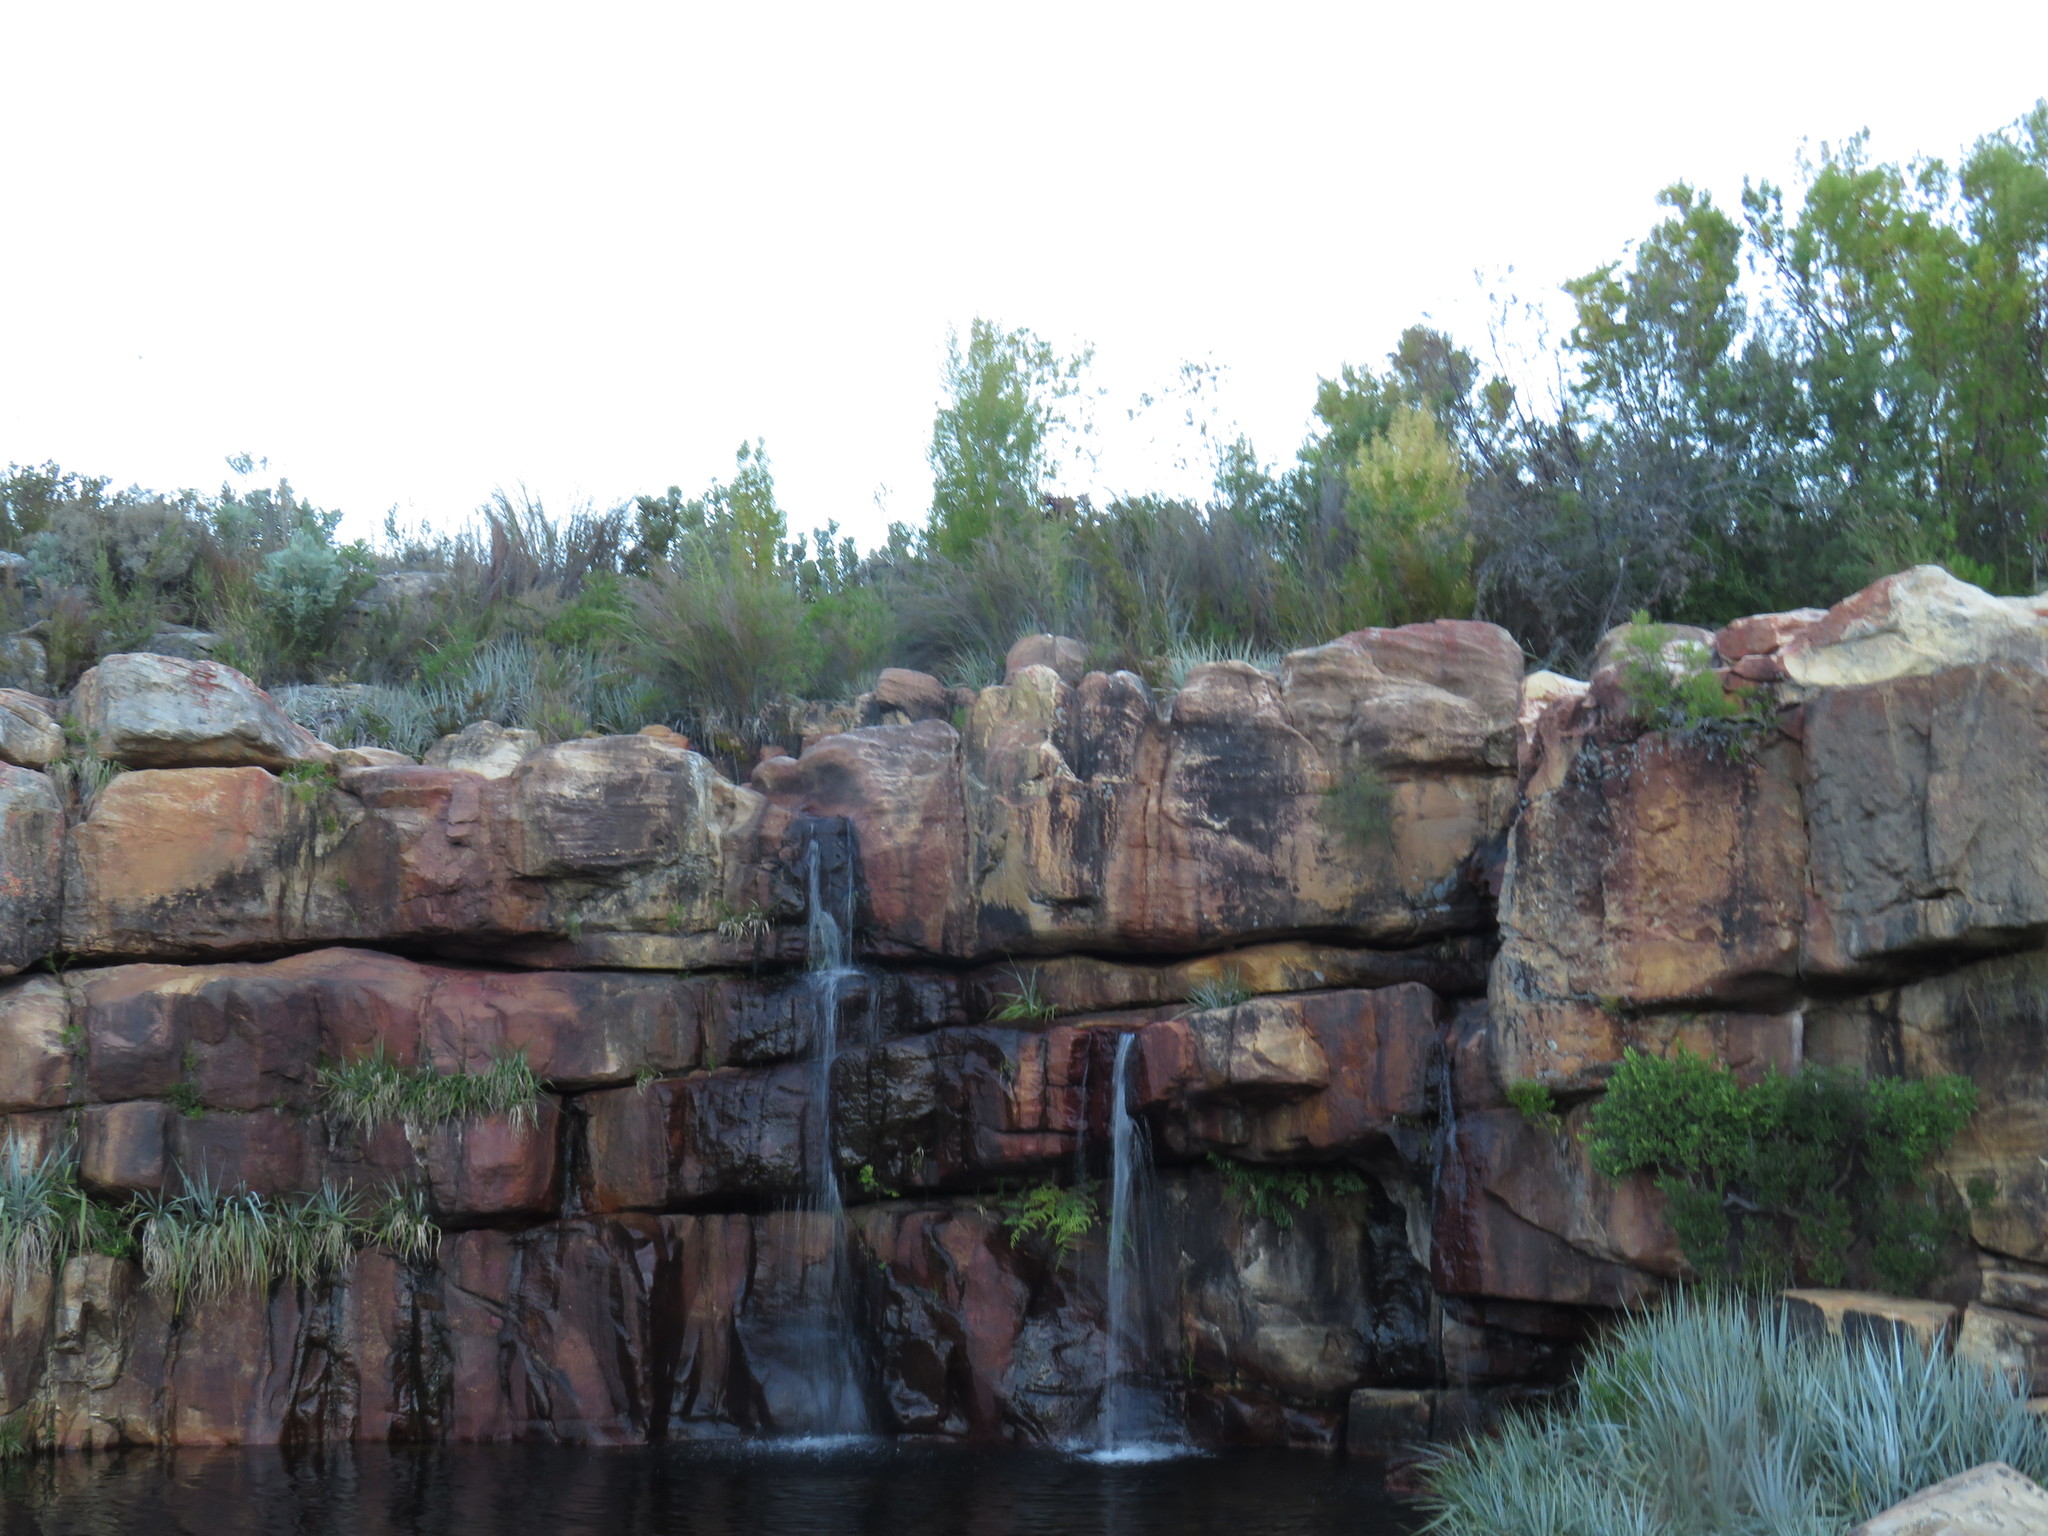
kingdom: Plantae
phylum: Tracheophyta
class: Magnoliopsida
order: Proteales
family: Proteaceae
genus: Leucadendron
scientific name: Leucadendron salicifolium
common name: Common stream conebush
